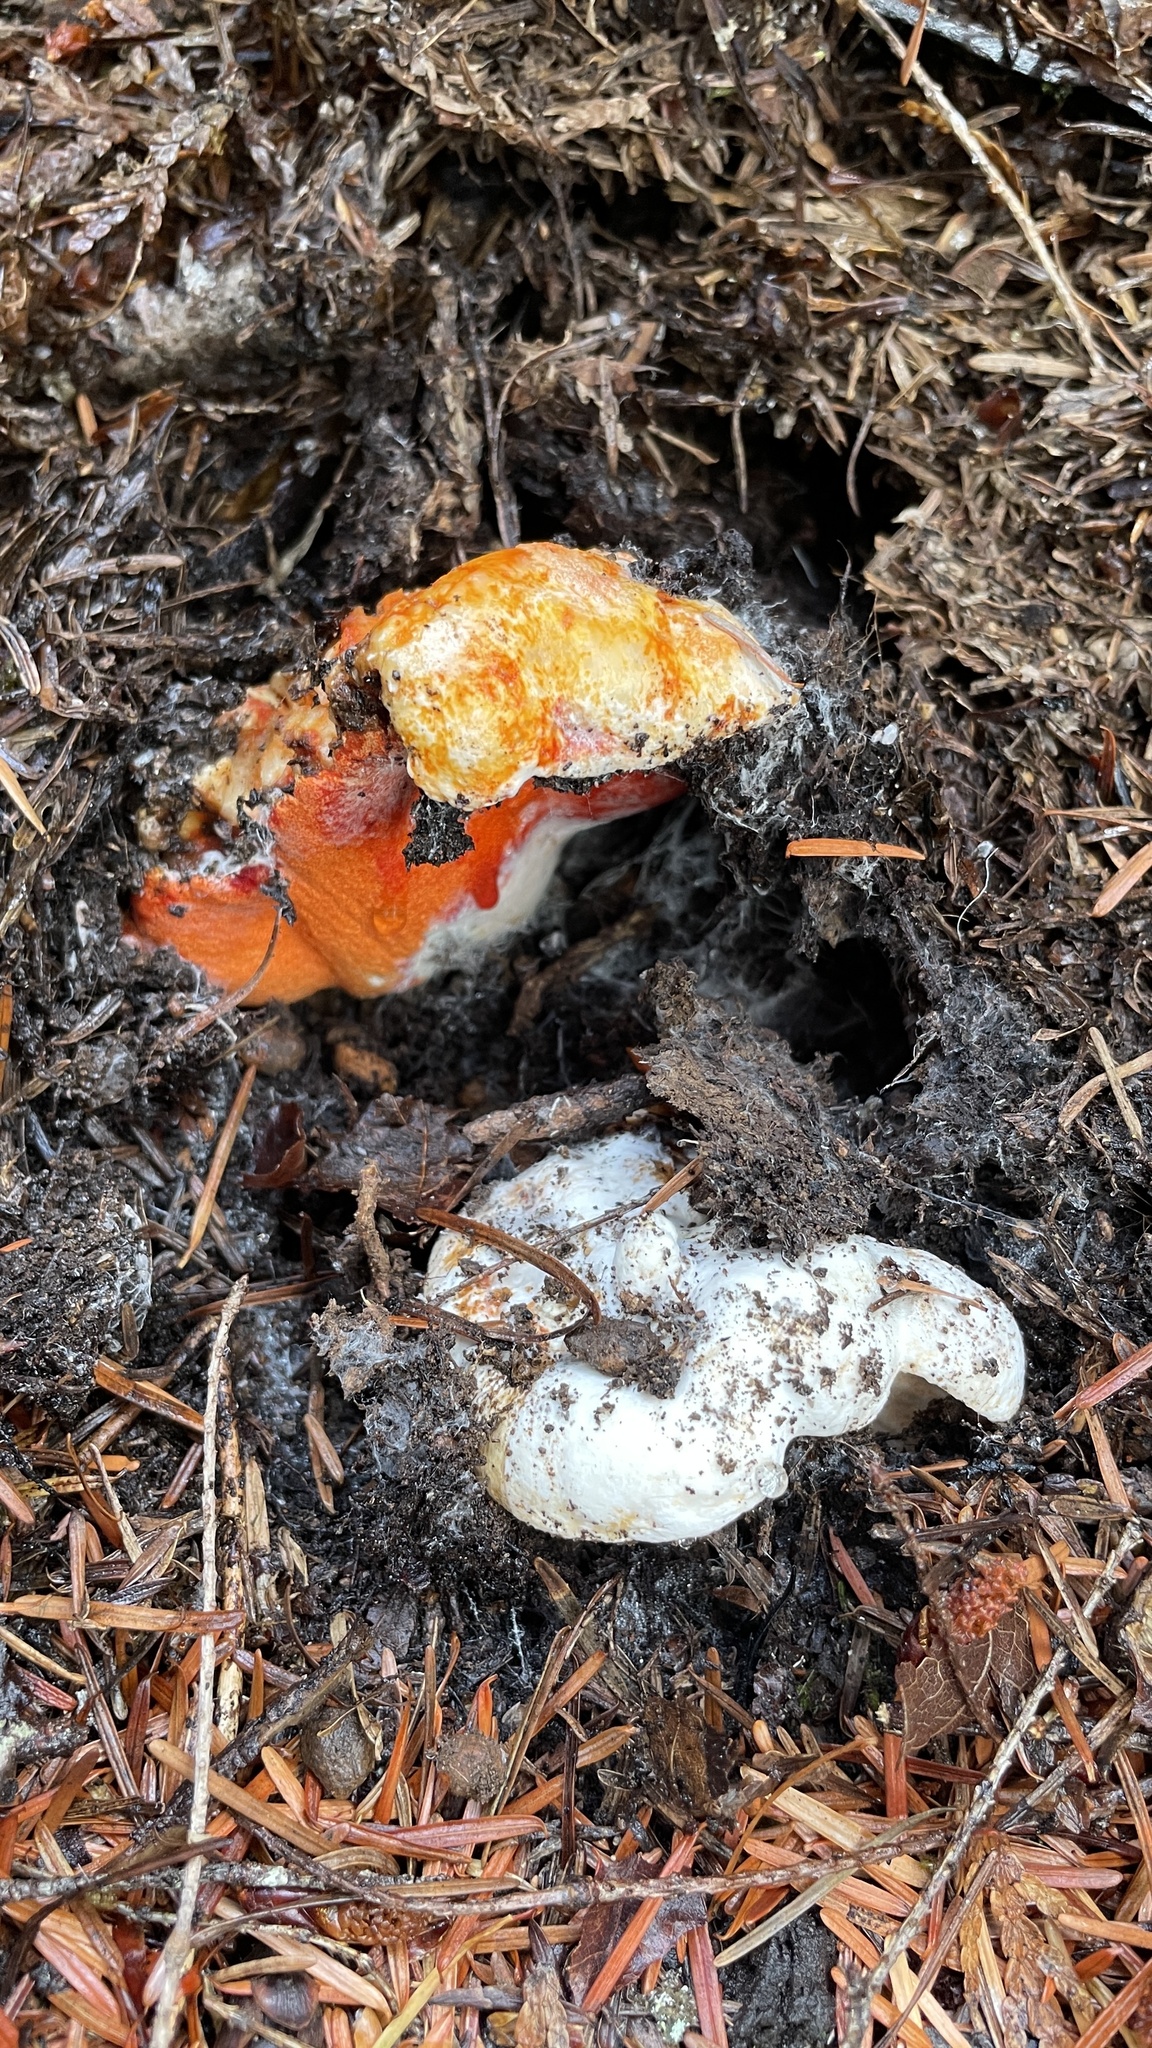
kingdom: Fungi
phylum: Ascomycota
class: Sordariomycetes
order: Hypocreales
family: Hypocreaceae
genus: Hypomyces
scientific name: Hypomyces lactifluorum
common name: Lobster mushroom
